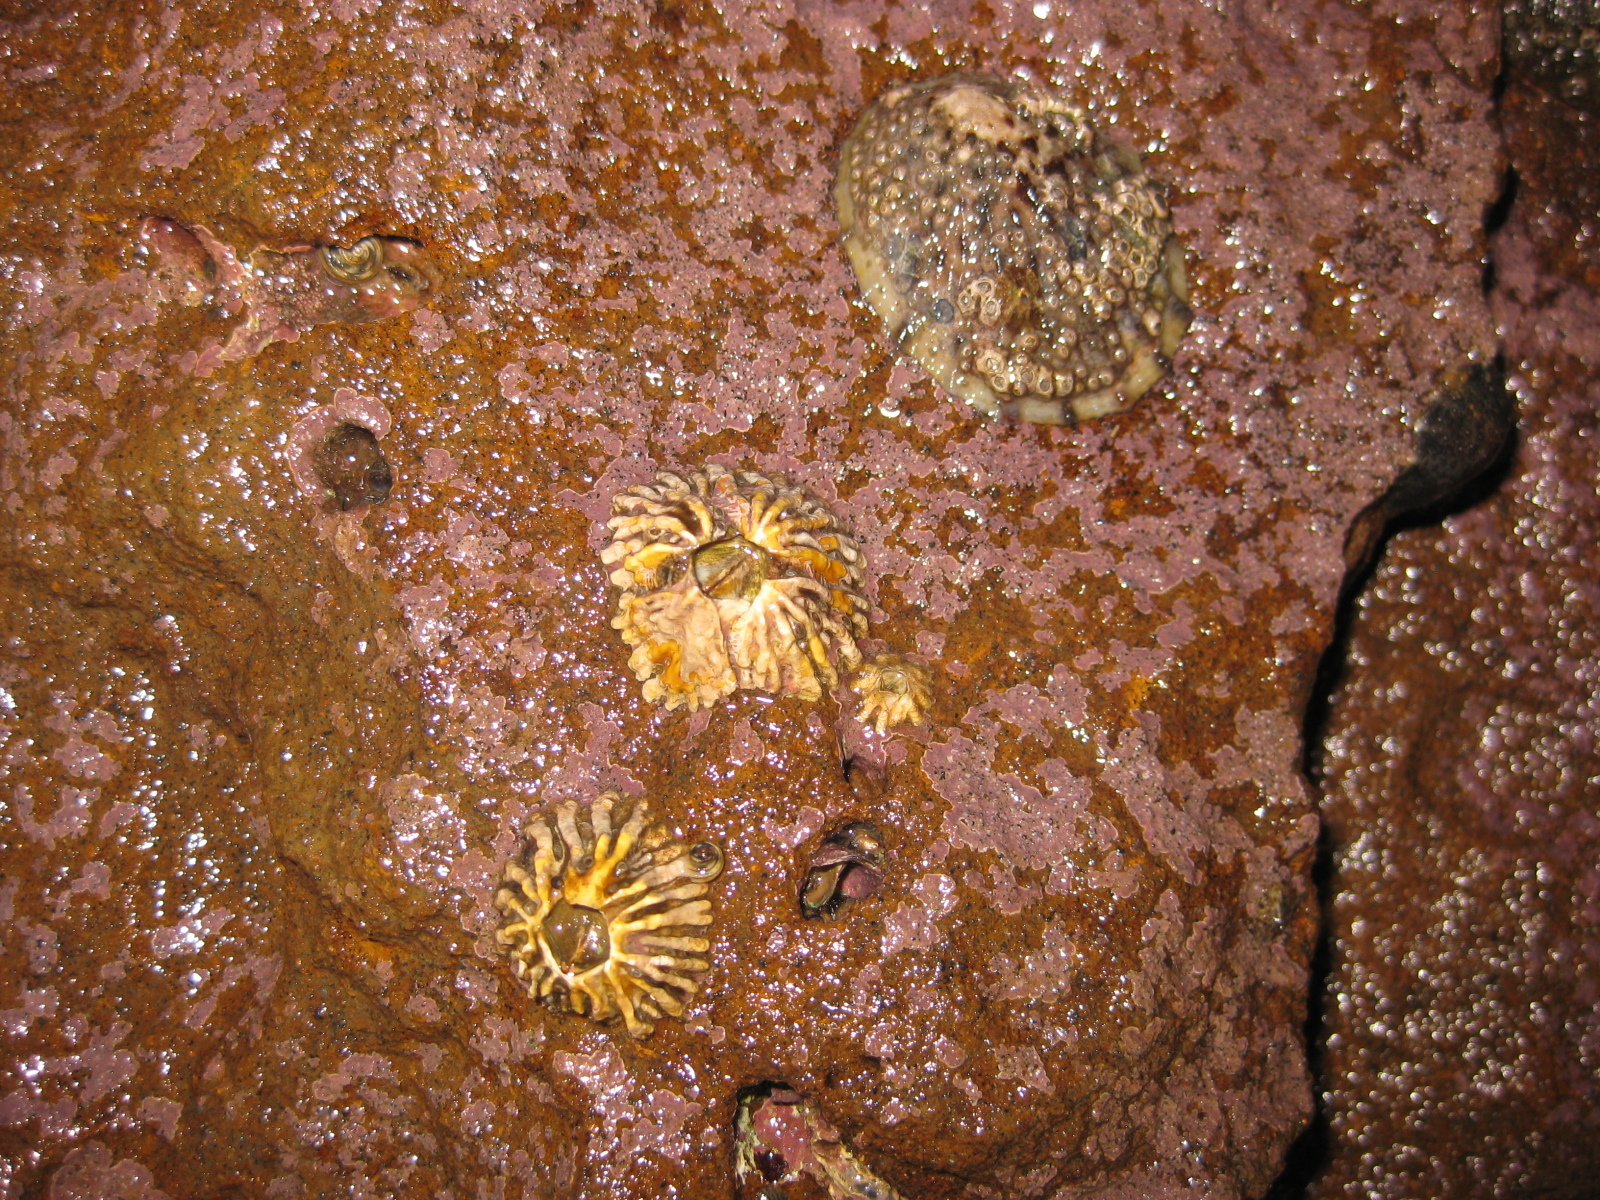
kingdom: Animalia
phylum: Arthropoda
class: Maxillopoda
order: Sessilia
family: Tetraclitidae
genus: Epopella
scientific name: Epopella plicata
